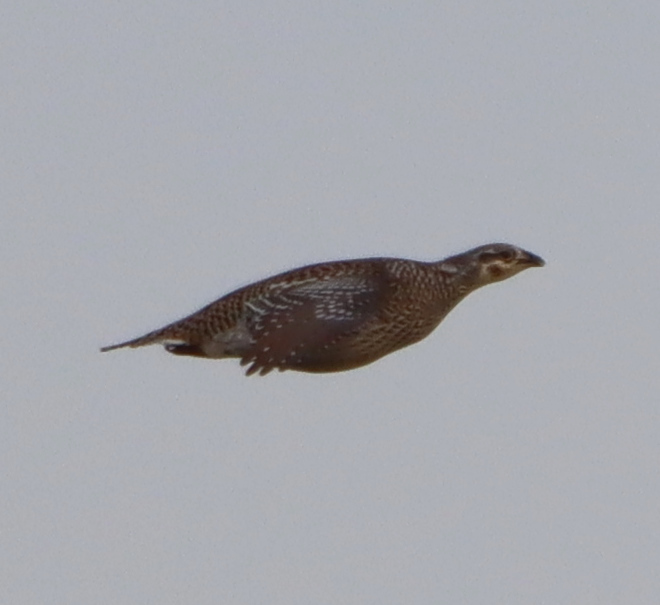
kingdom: Animalia
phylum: Chordata
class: Aves
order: Galliformes
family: Phasianidae
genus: Tympanuchus
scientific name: Tympanuchus phasianellus
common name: Sharp-tailed grouse
